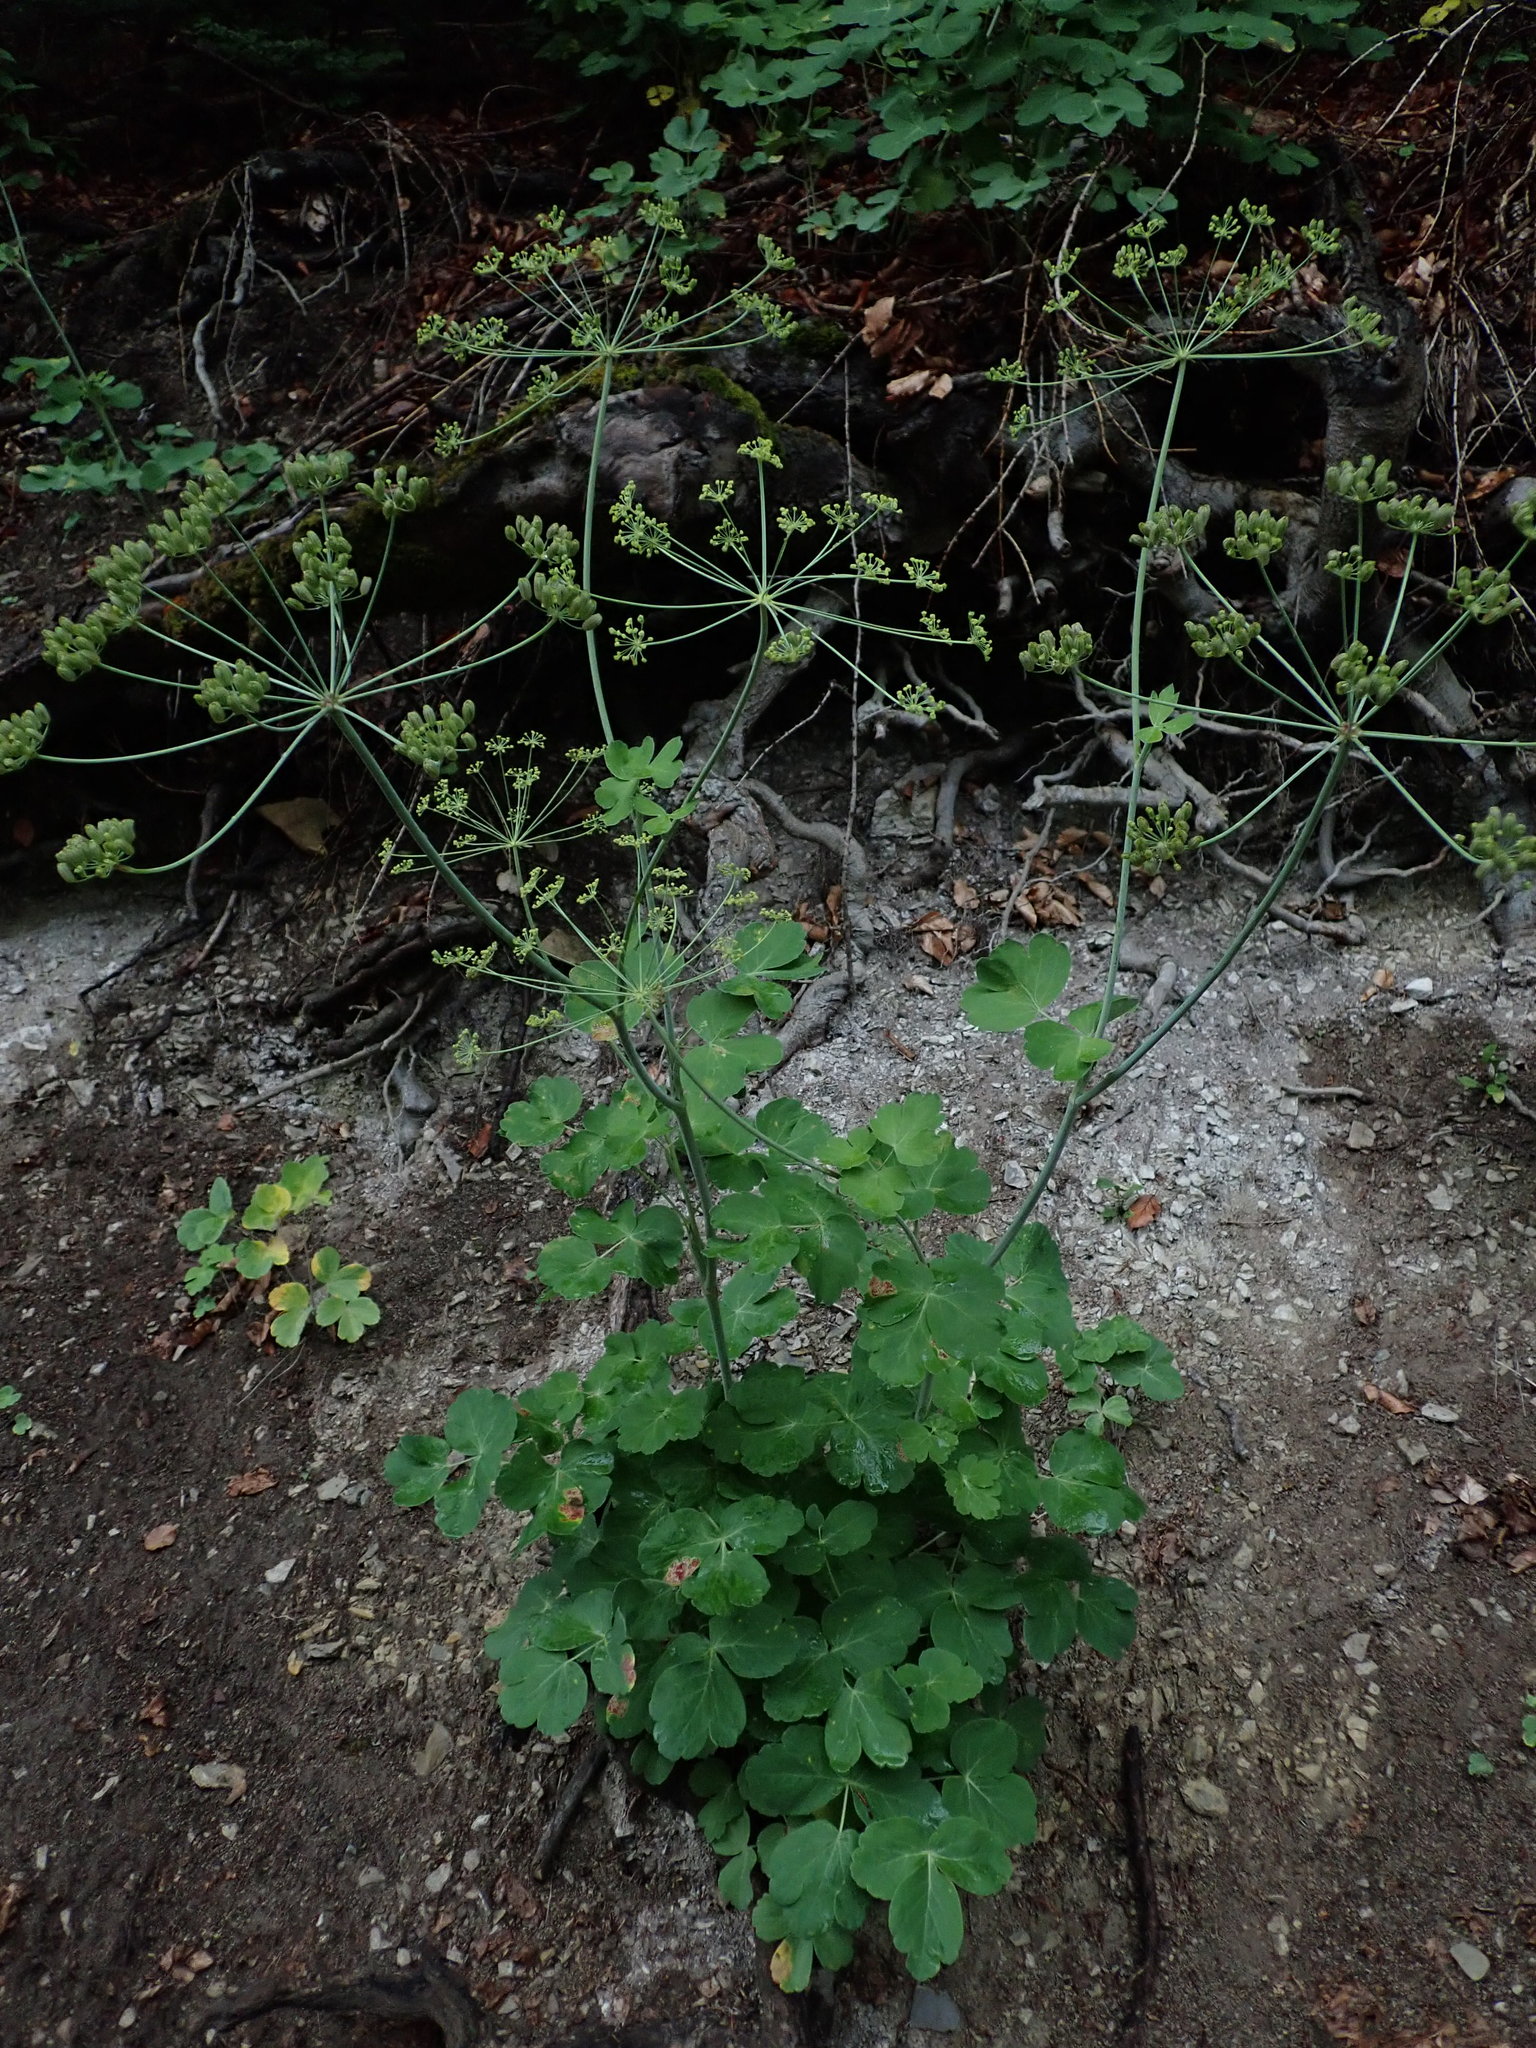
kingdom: Plantae
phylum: Tracheophyta
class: Magnoliopsida
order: Apiales
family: Apiaceae
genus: Laser
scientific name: Laser trilobum
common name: Laser
